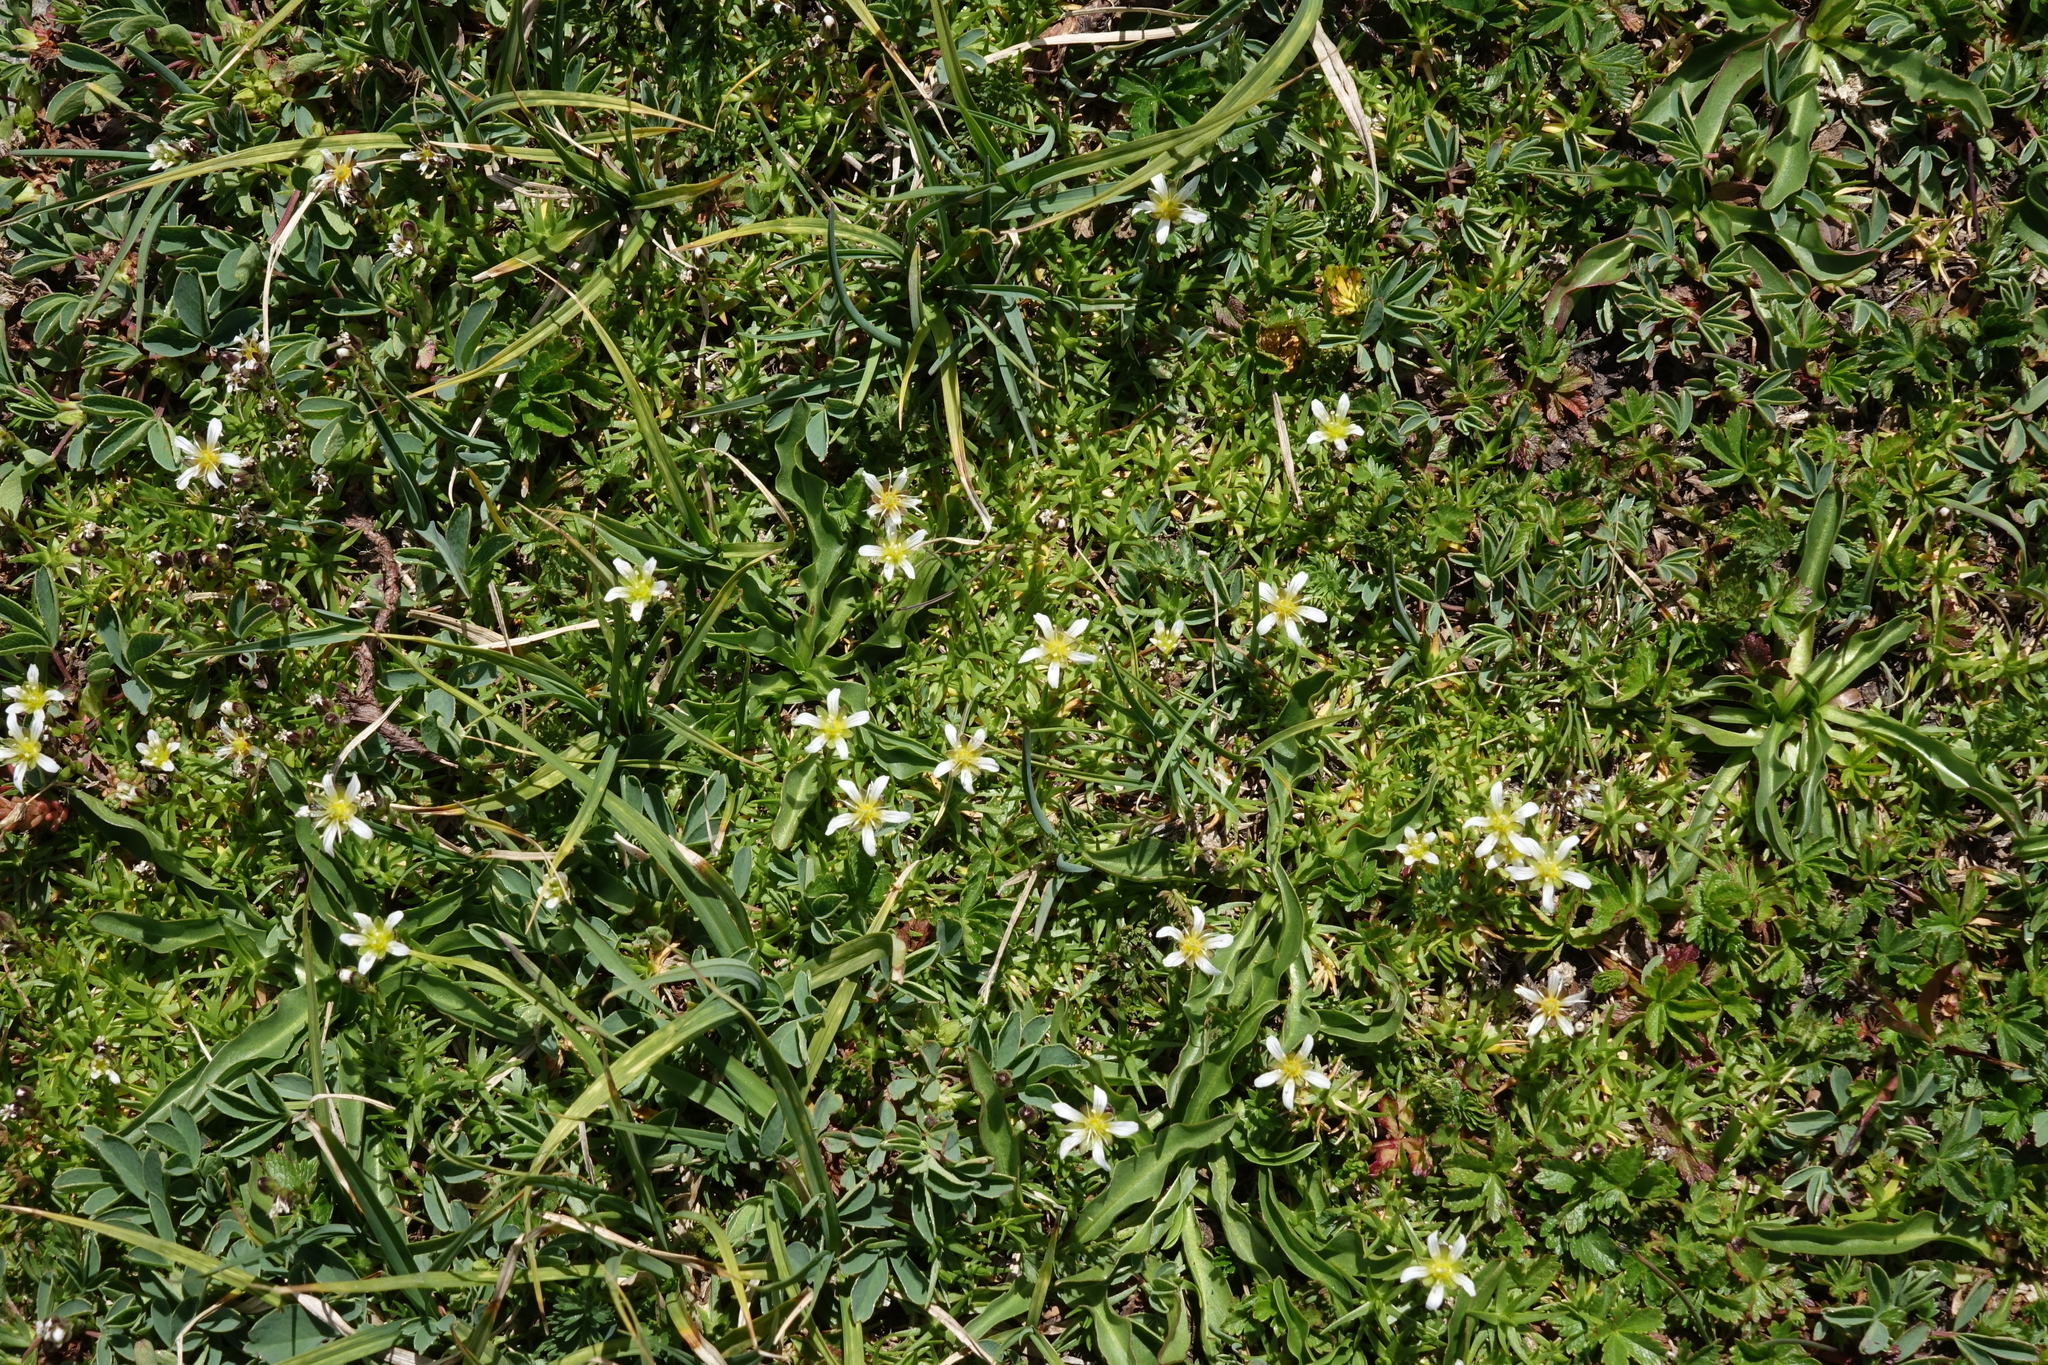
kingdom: Plantae
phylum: Tracheophyta
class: Magnoliopsida
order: Caryophyllales
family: Caryophyllaceae
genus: Pseudocherleria
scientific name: Pseudocherleria aizoides
